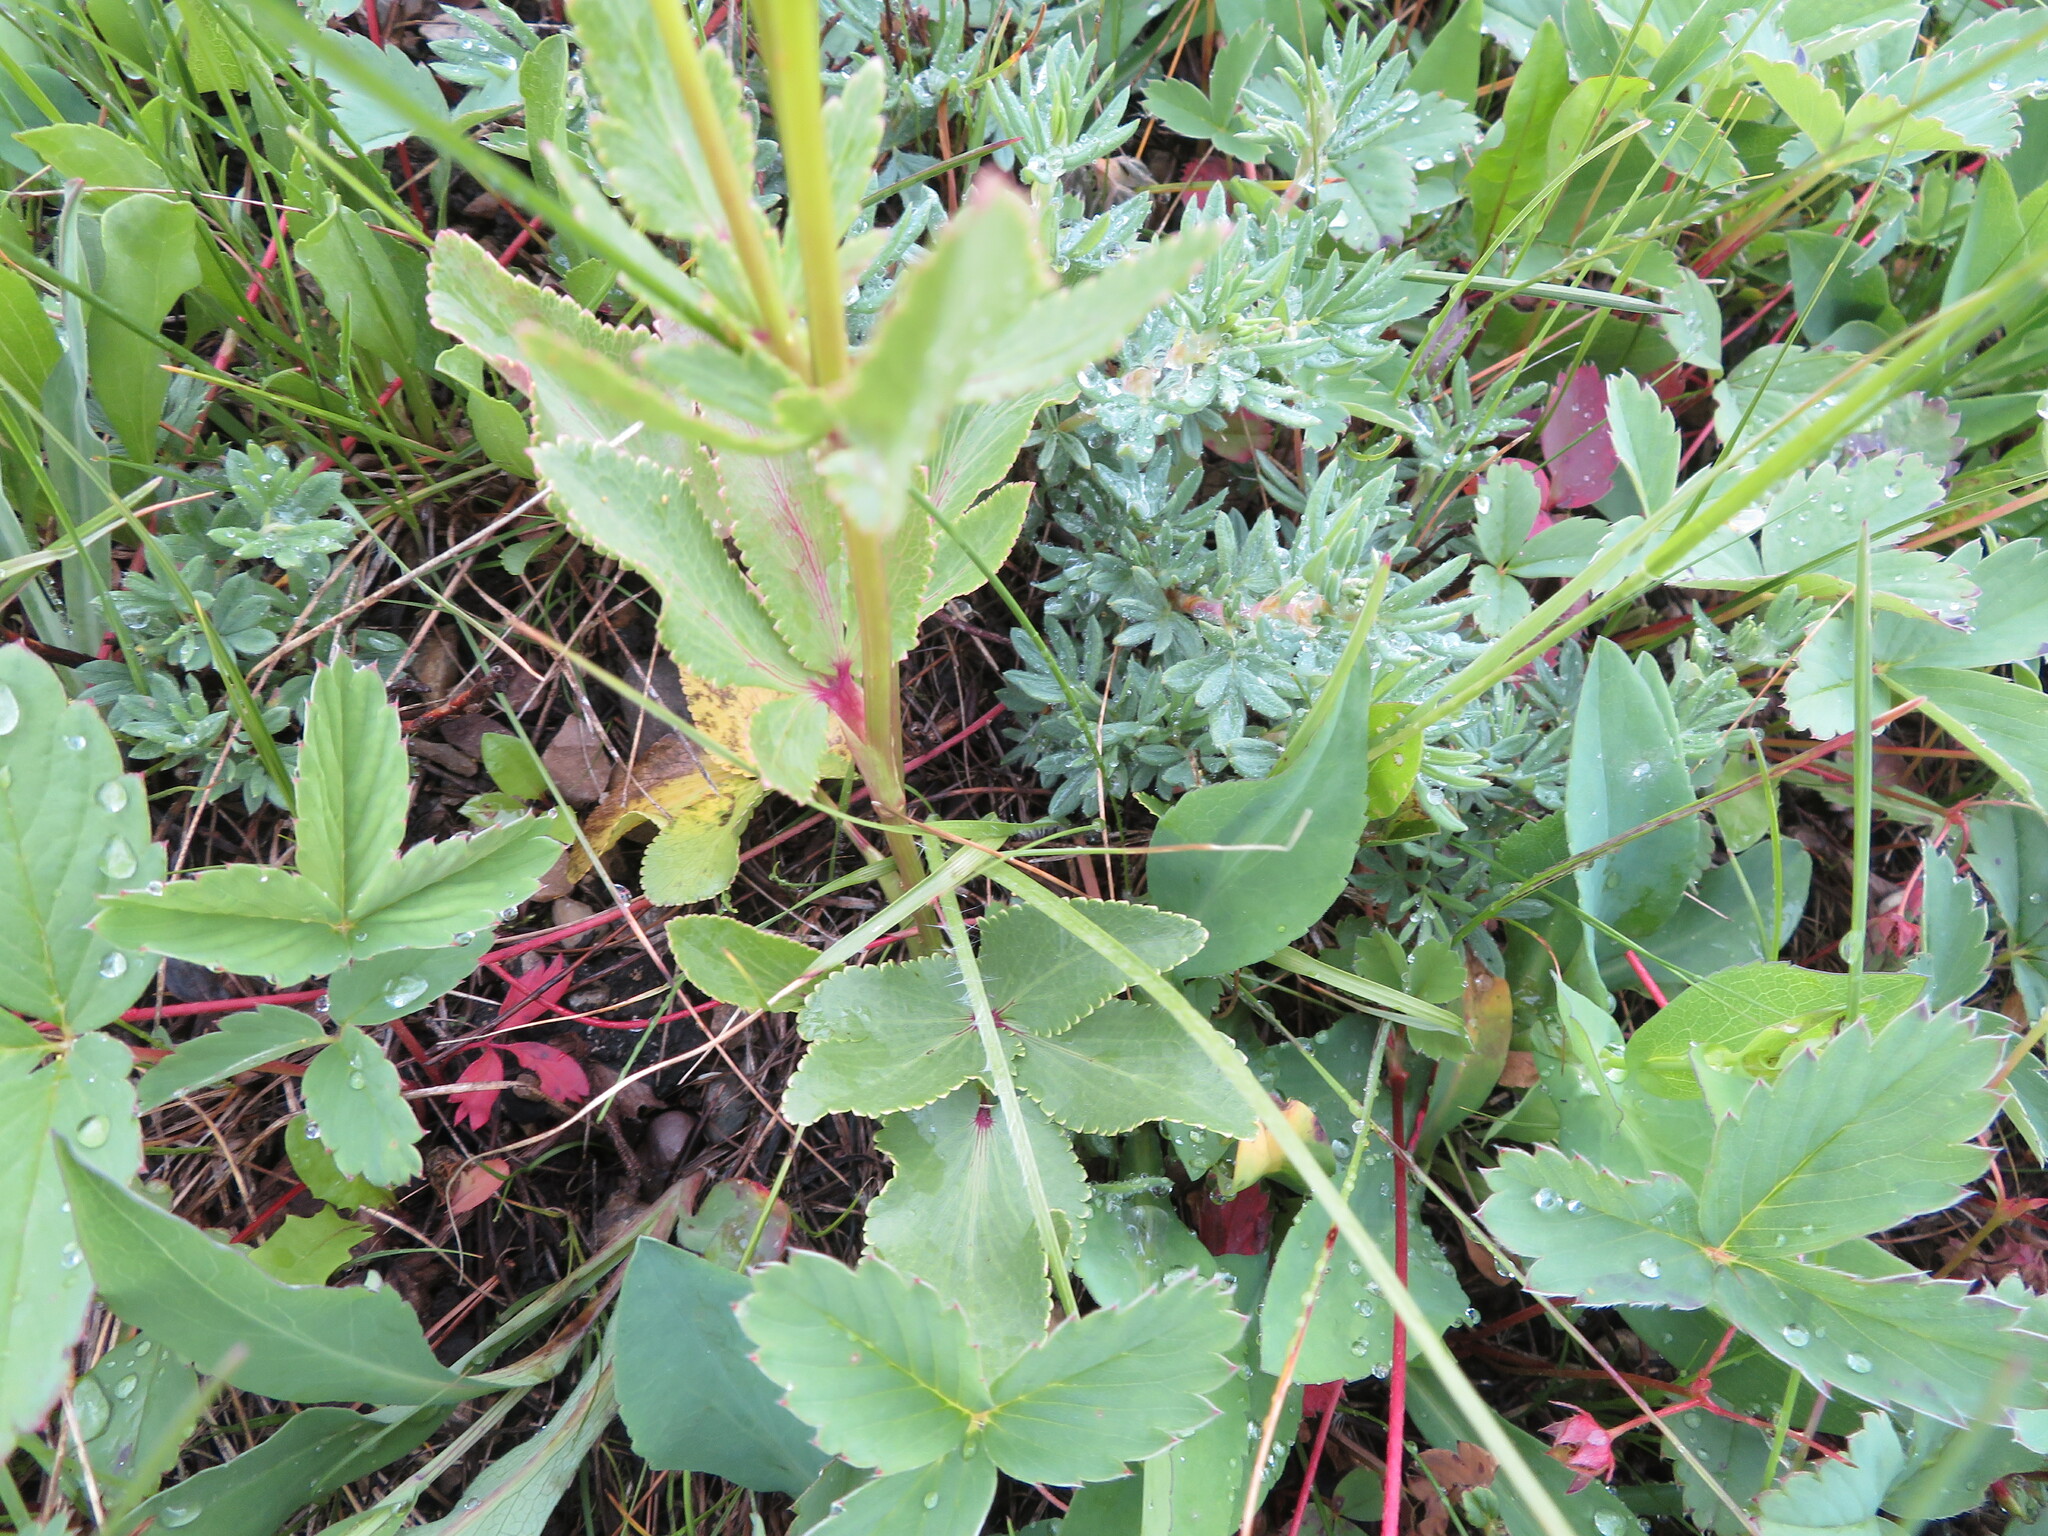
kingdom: Plantae
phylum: Tracheophyta
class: Magnoliopsida
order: Apiales
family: Apiaceae
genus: Zizia
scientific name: Zizia aptera
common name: Heart-leaved alexanders
